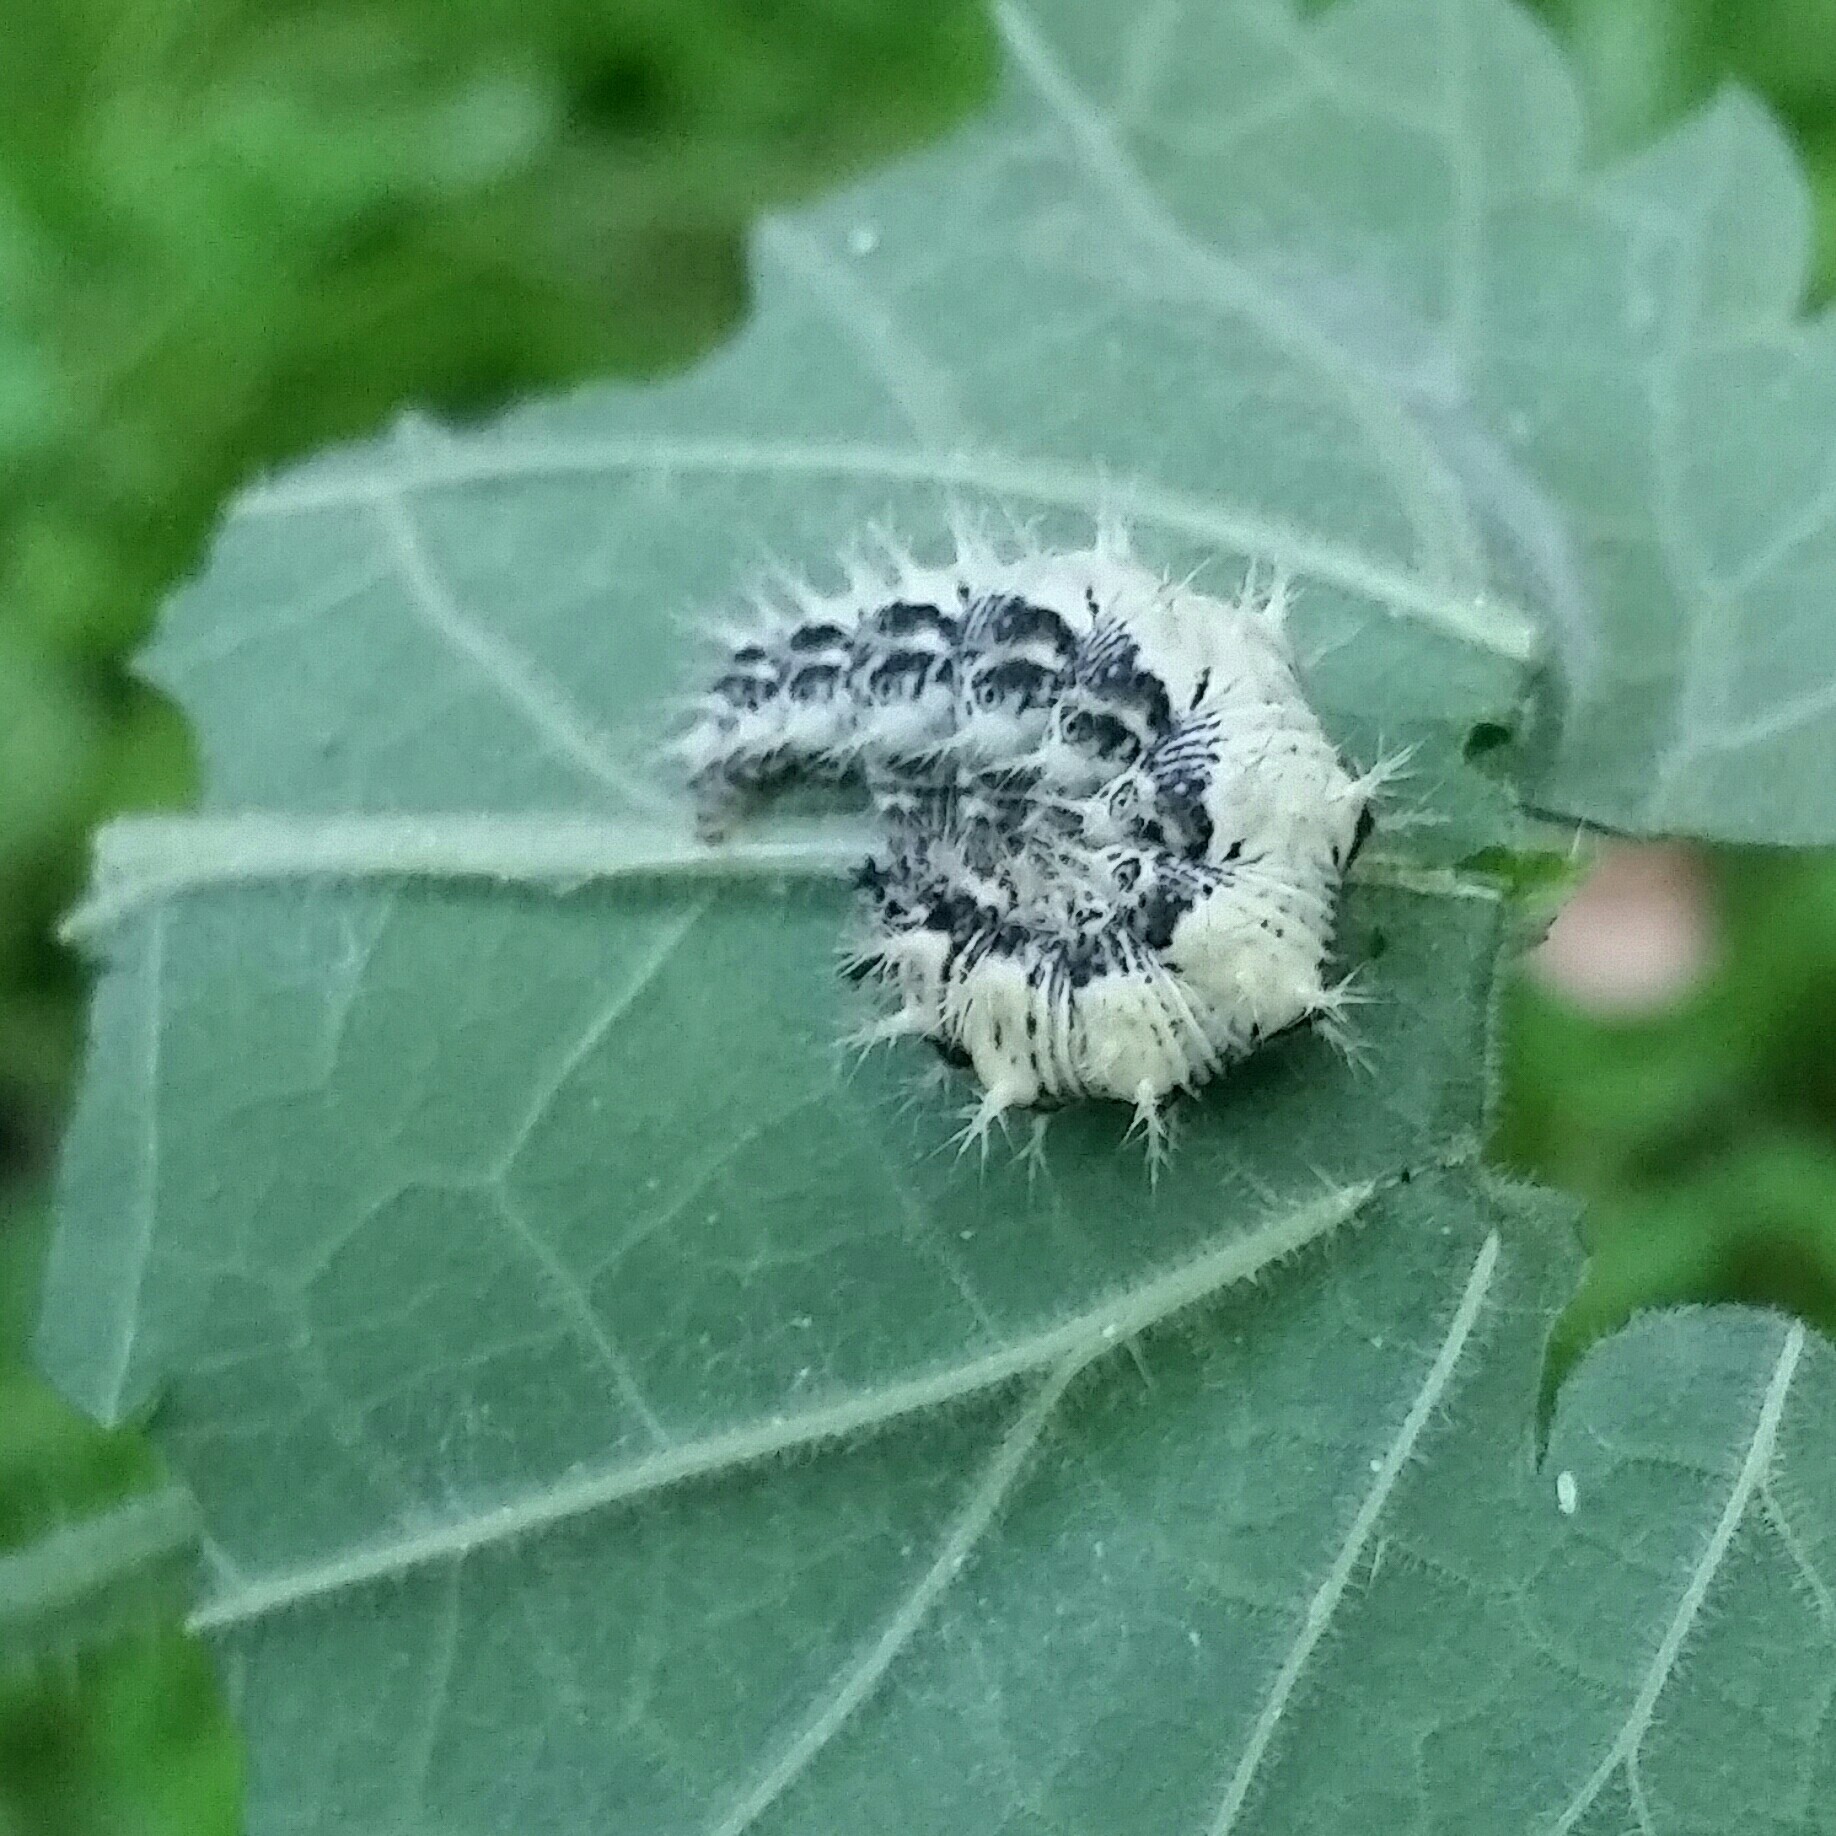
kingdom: Animalia
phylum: Arthropoda
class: Insecta
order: Lepidoptera
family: Nymphalidae
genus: Polygonia
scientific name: Polygonia satyrus
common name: Satyr angle wing
